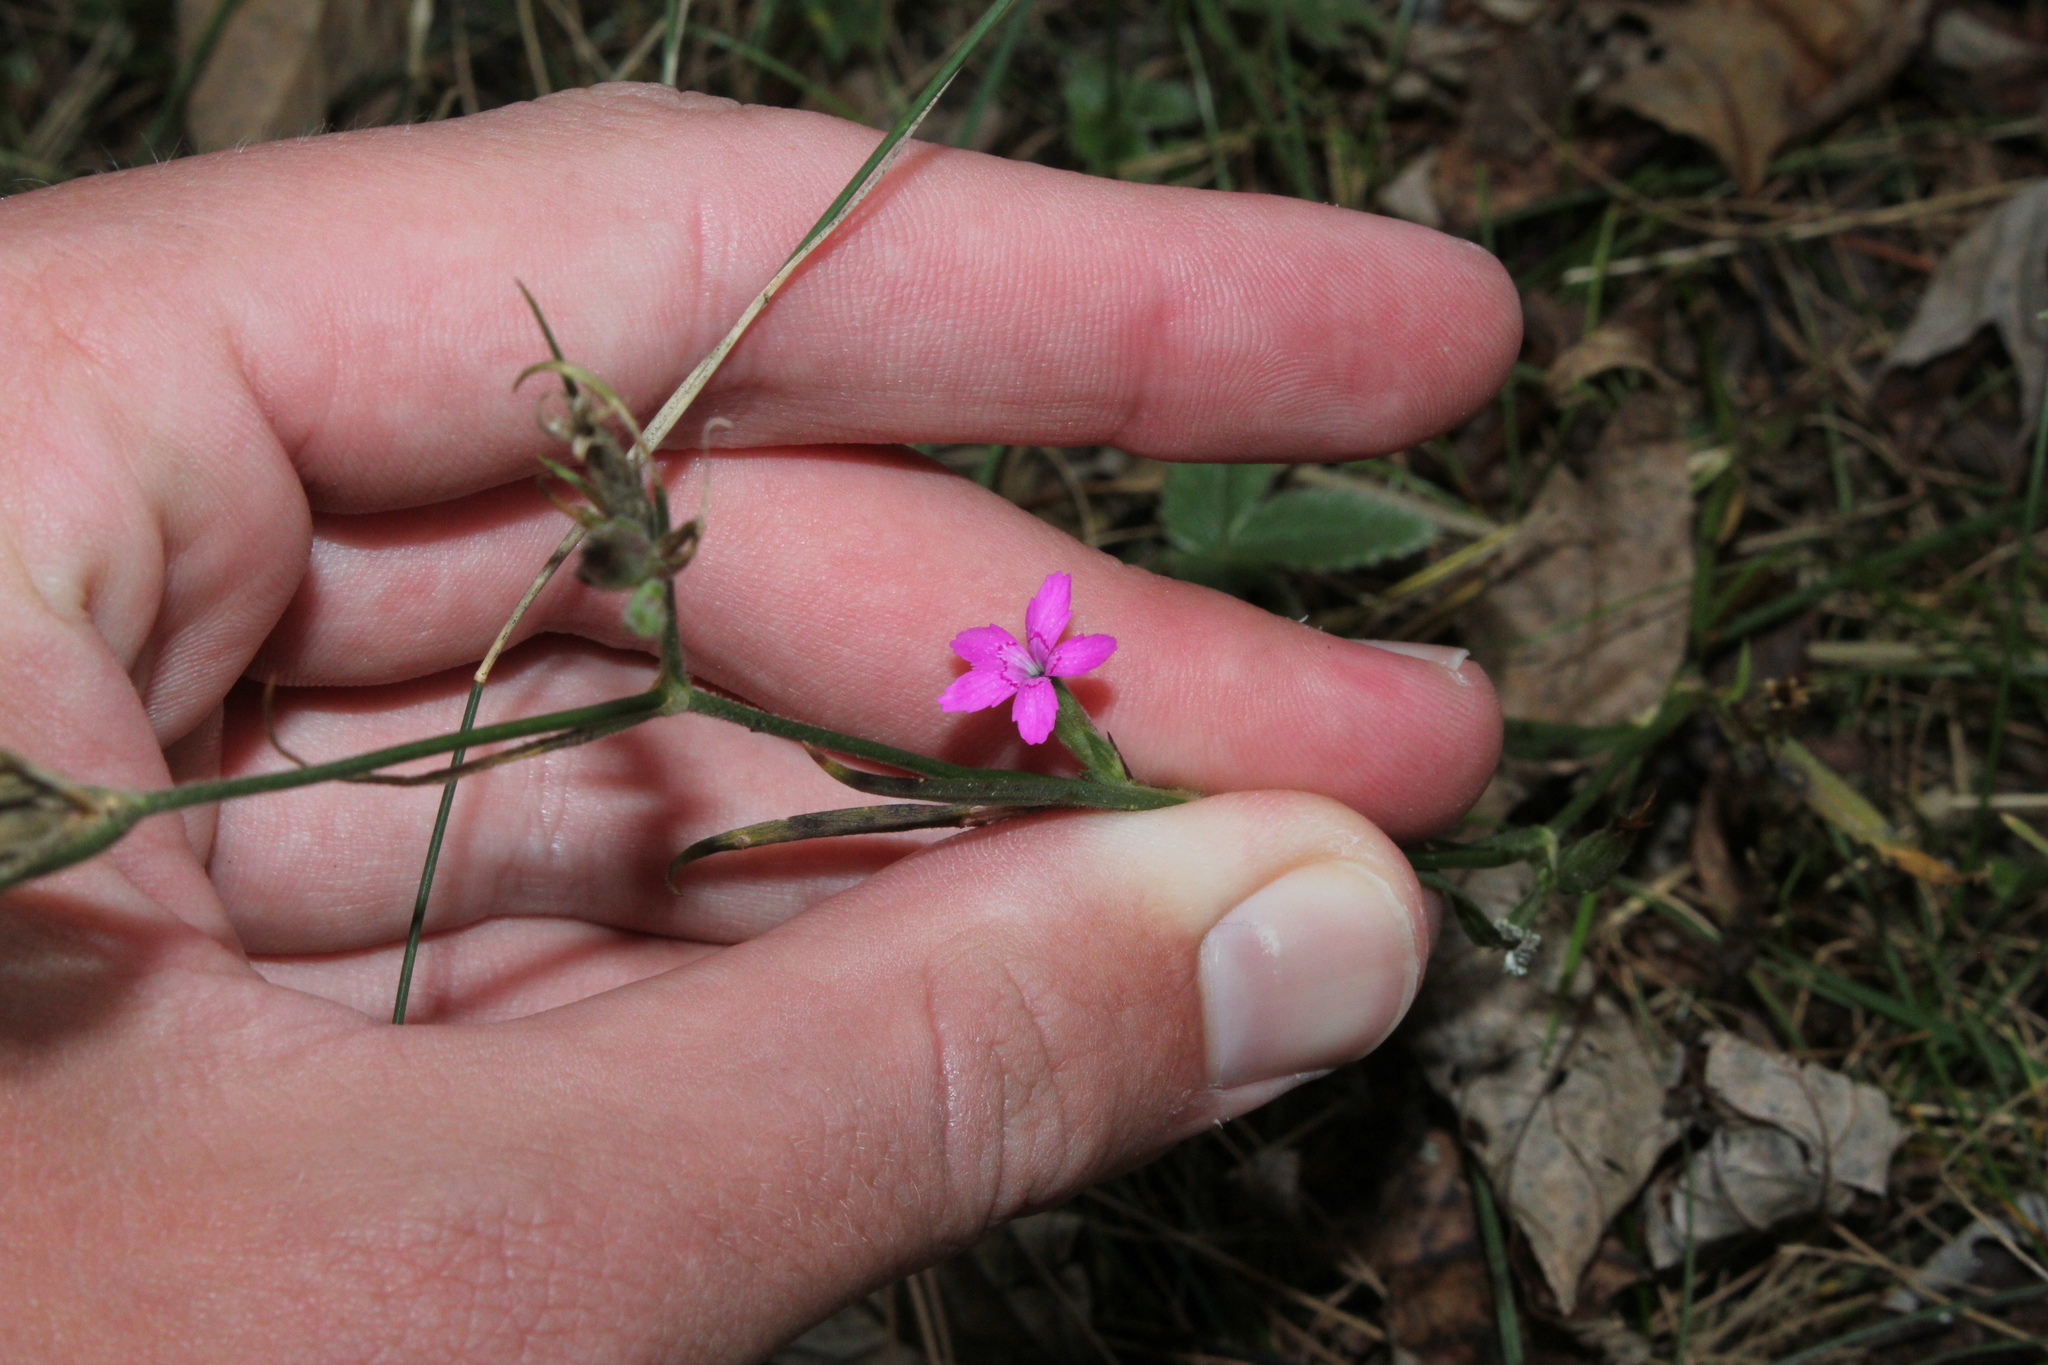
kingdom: Plantae
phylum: Tracheophyta
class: Magnoliopsida
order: Caryophyllales
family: Caryophyllaceae
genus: Dianthus
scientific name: Dianthus armeria
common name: Deptford pink
